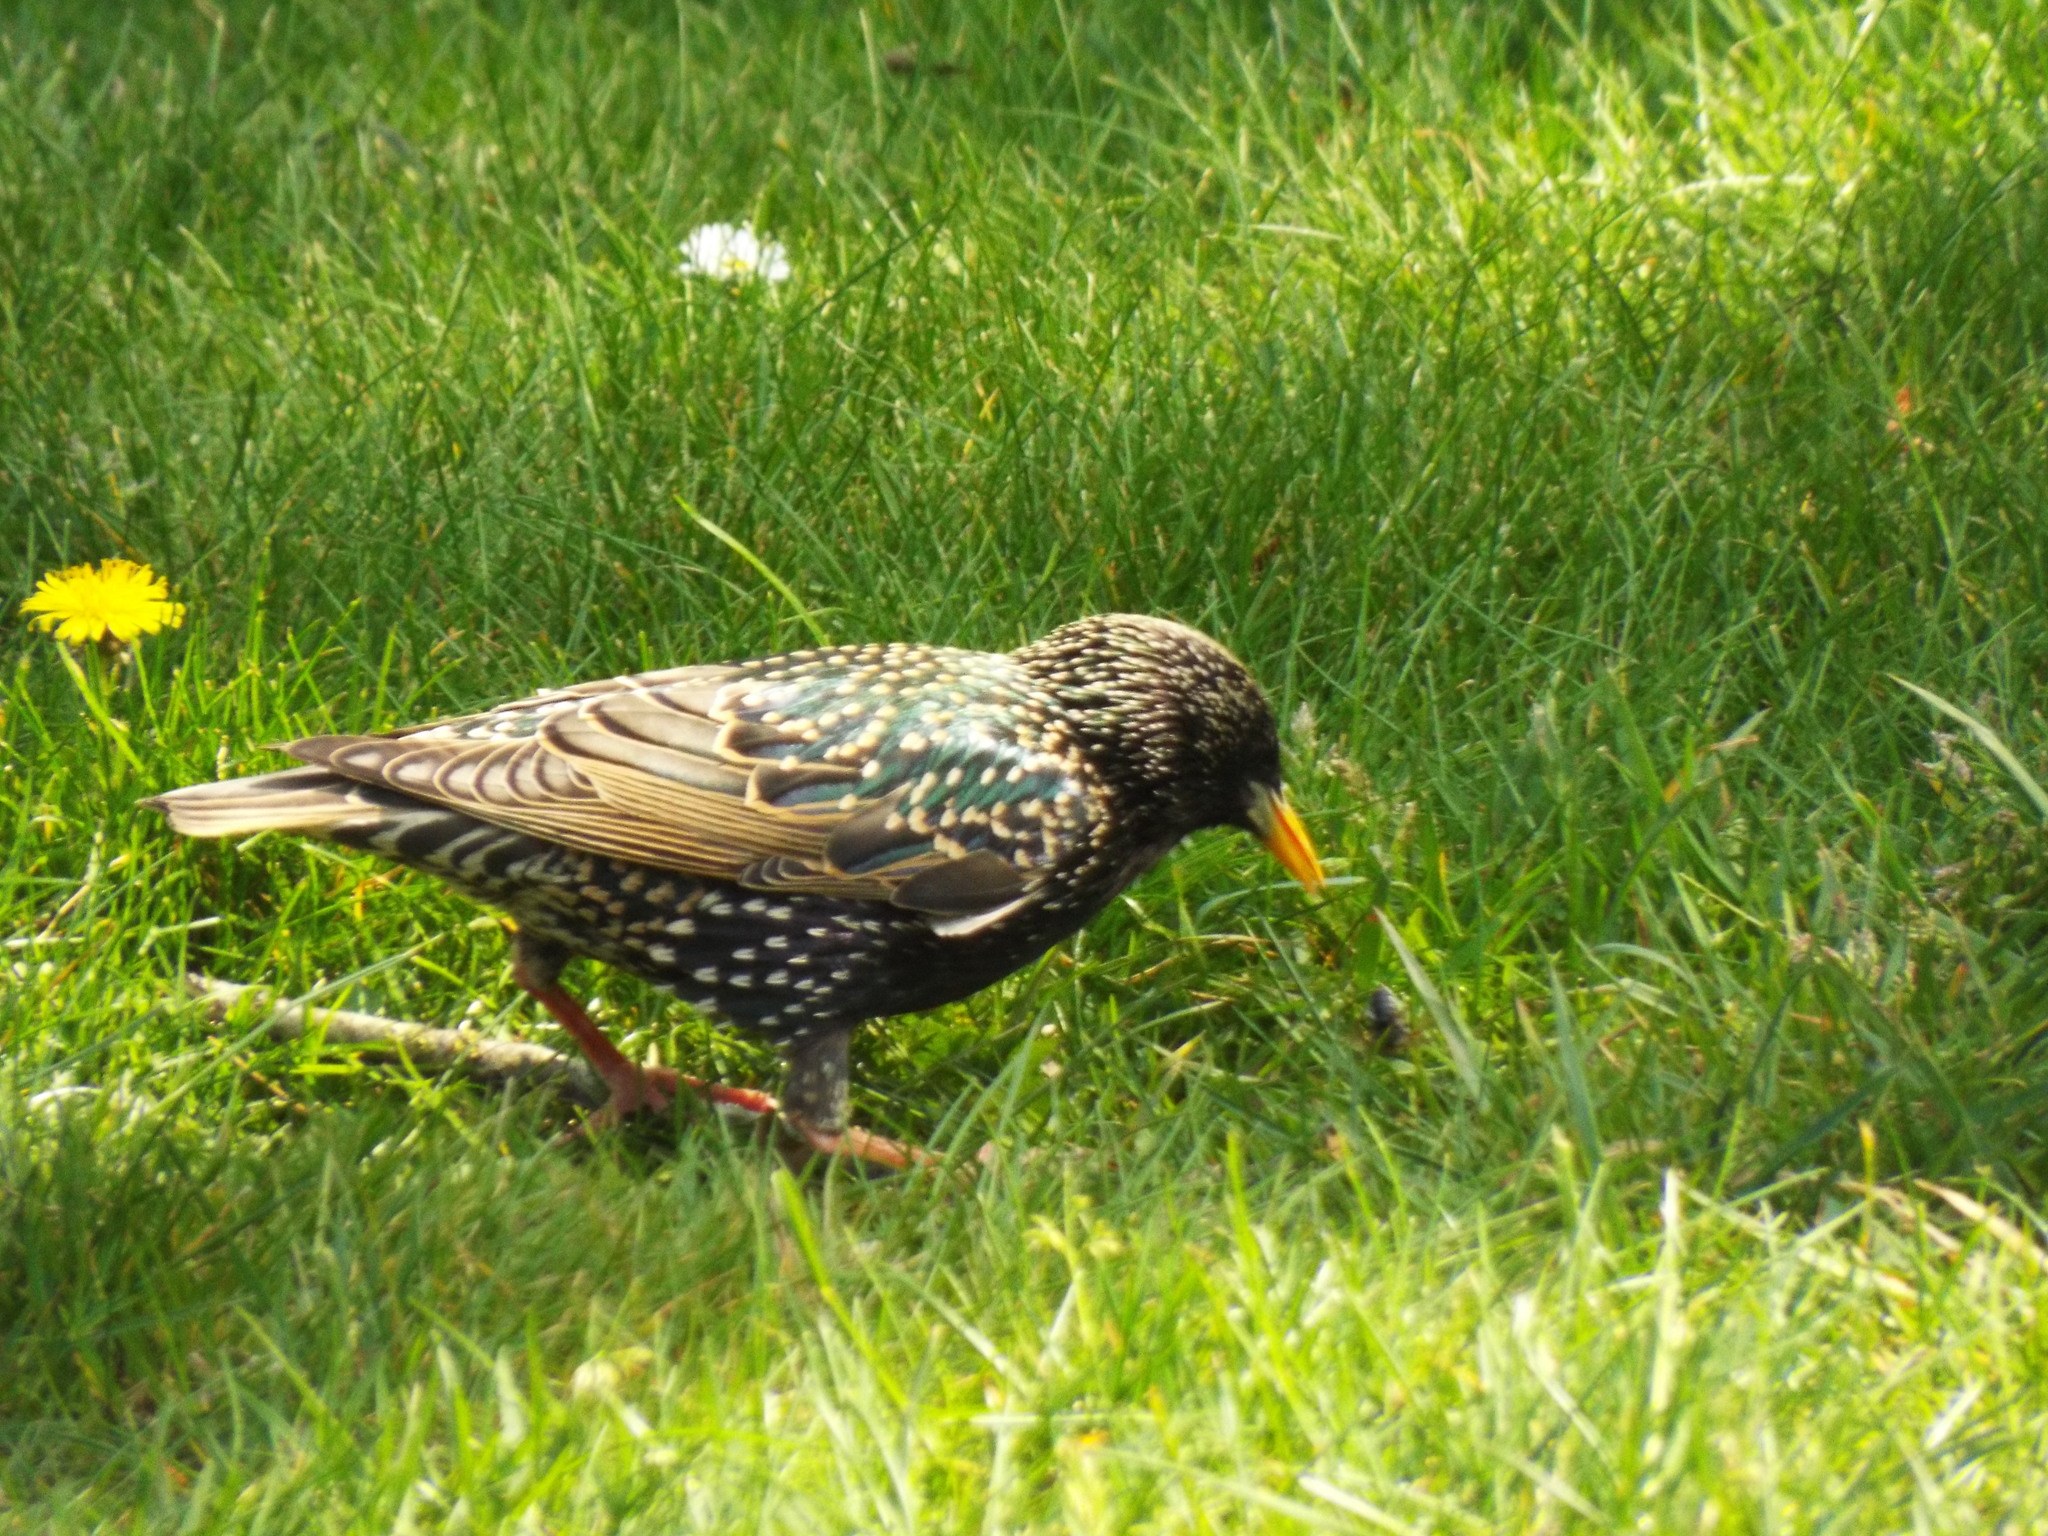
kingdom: Animalia
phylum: Chordata
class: Aves
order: Passeriformes
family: Sturnidae
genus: Sturnus
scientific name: Sturnus vulgaris
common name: Common starling
